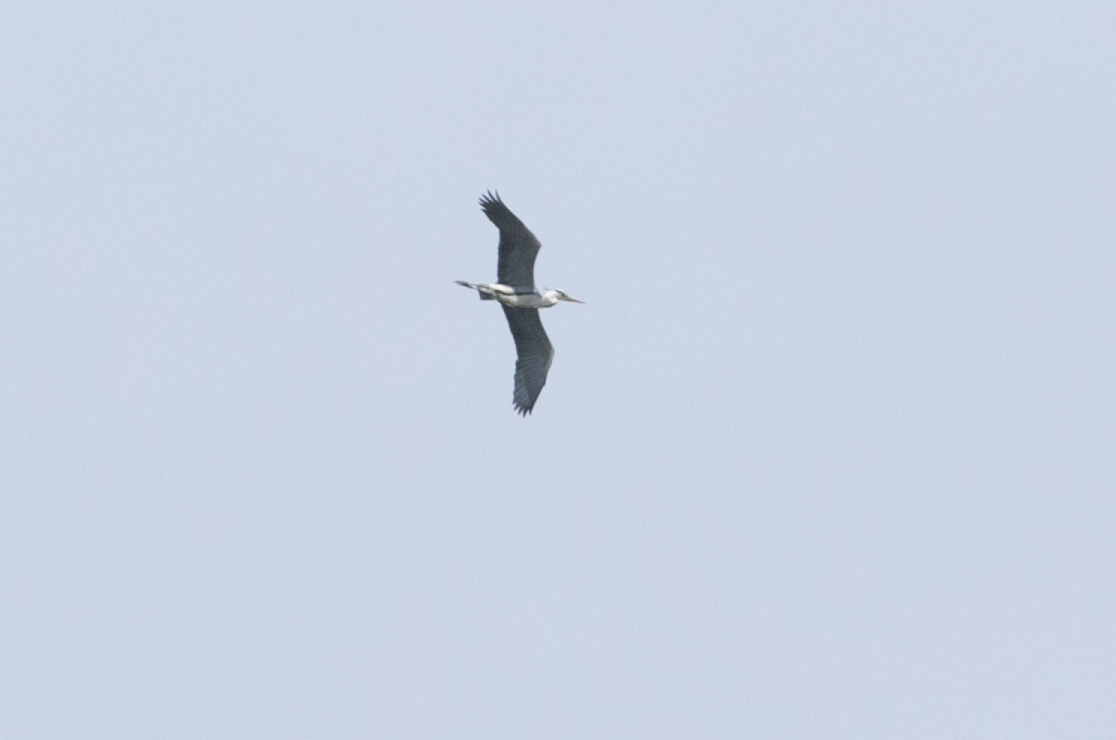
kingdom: Animalia
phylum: Chordata
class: Aves
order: Pelecaniformes
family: Ardeidae
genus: Ardea
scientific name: Ardea cinerea
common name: Grey heron
